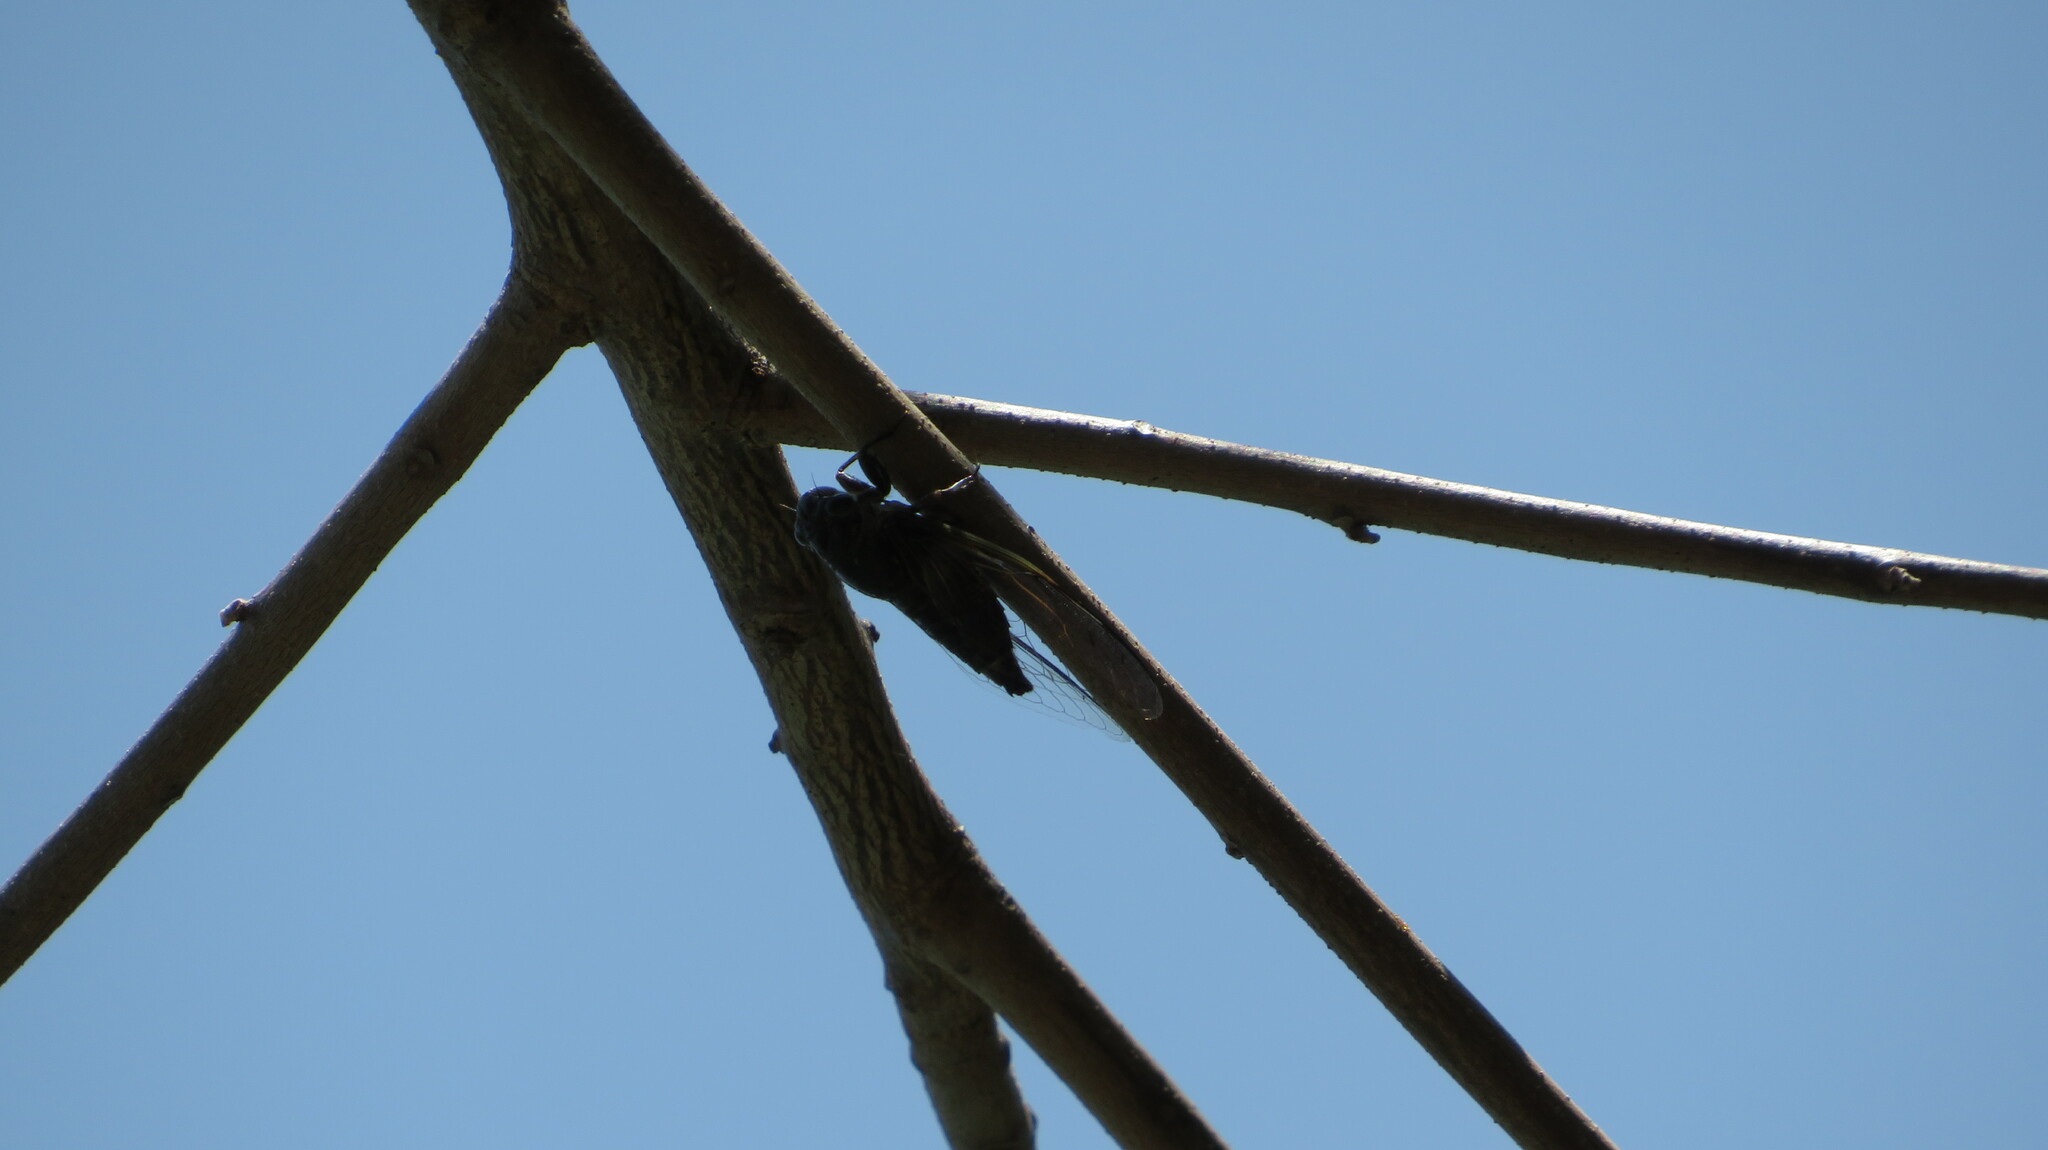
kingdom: Animalia
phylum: Arthropoda
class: Insecta
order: Hemiptera
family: Cicadidae
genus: Dundubia
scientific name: Dundubia nagarasingna
